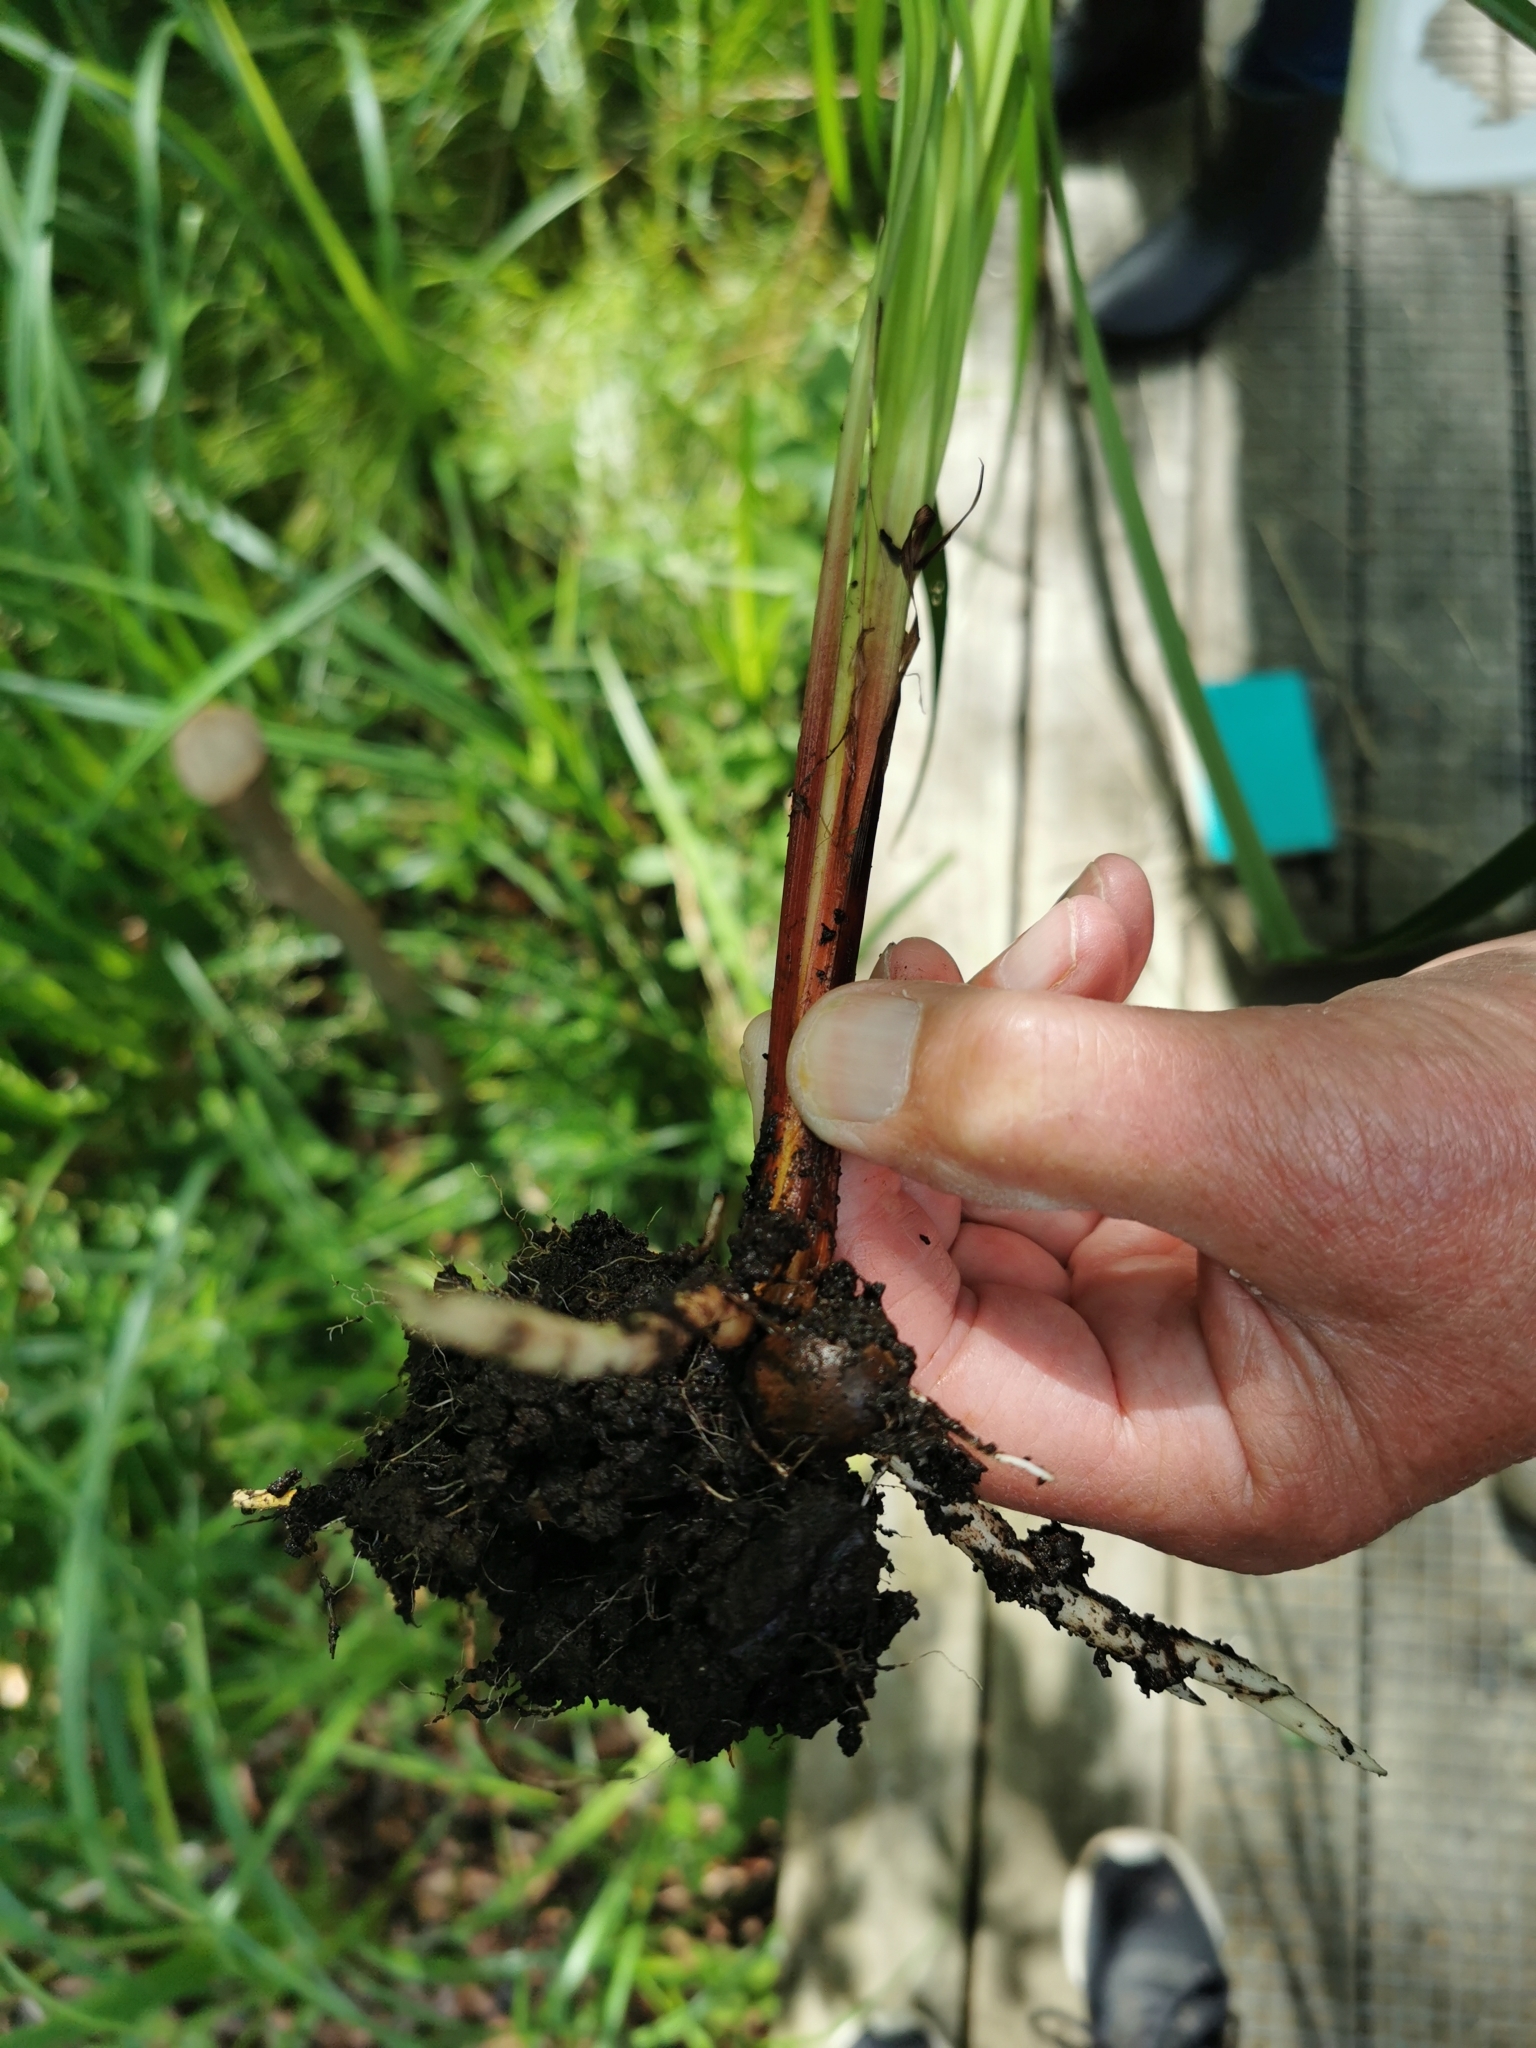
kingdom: Plantae
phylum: Tracheophyta
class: Liliopsida
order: Poales
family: Cyperaceae
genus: Carex
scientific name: Carex acutiformis
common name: Lesser pond-sedge
